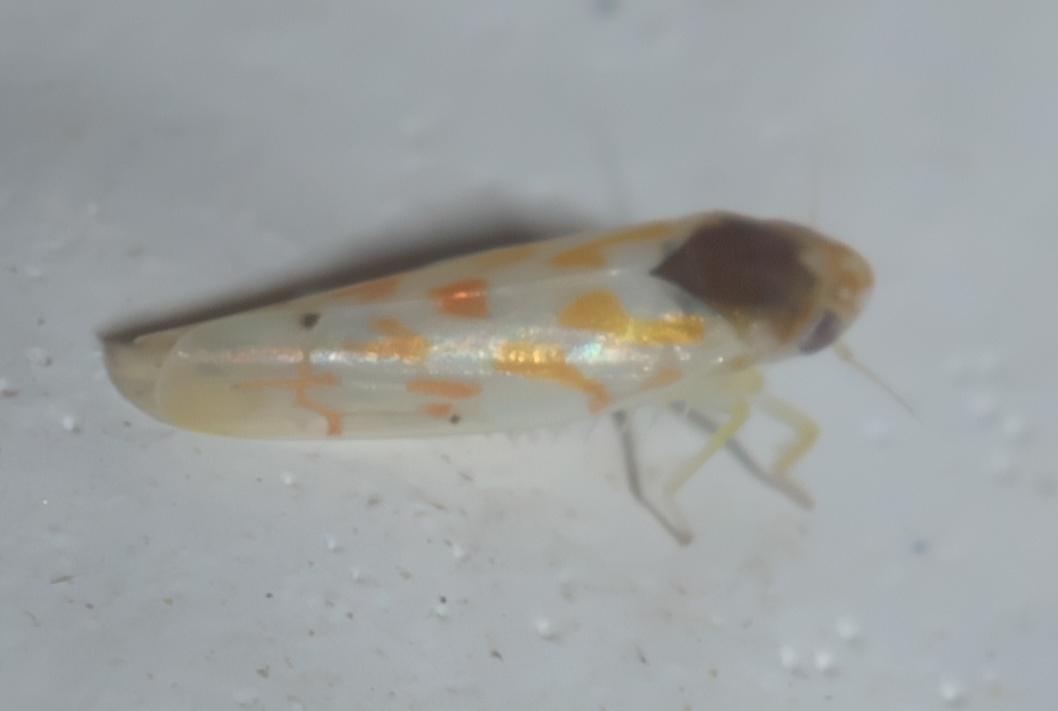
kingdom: Animalia
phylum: Arthropoda
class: Insecta
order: Hemiptera
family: Cicadellidae
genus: Eratoneura
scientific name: Eratoneura ardens
